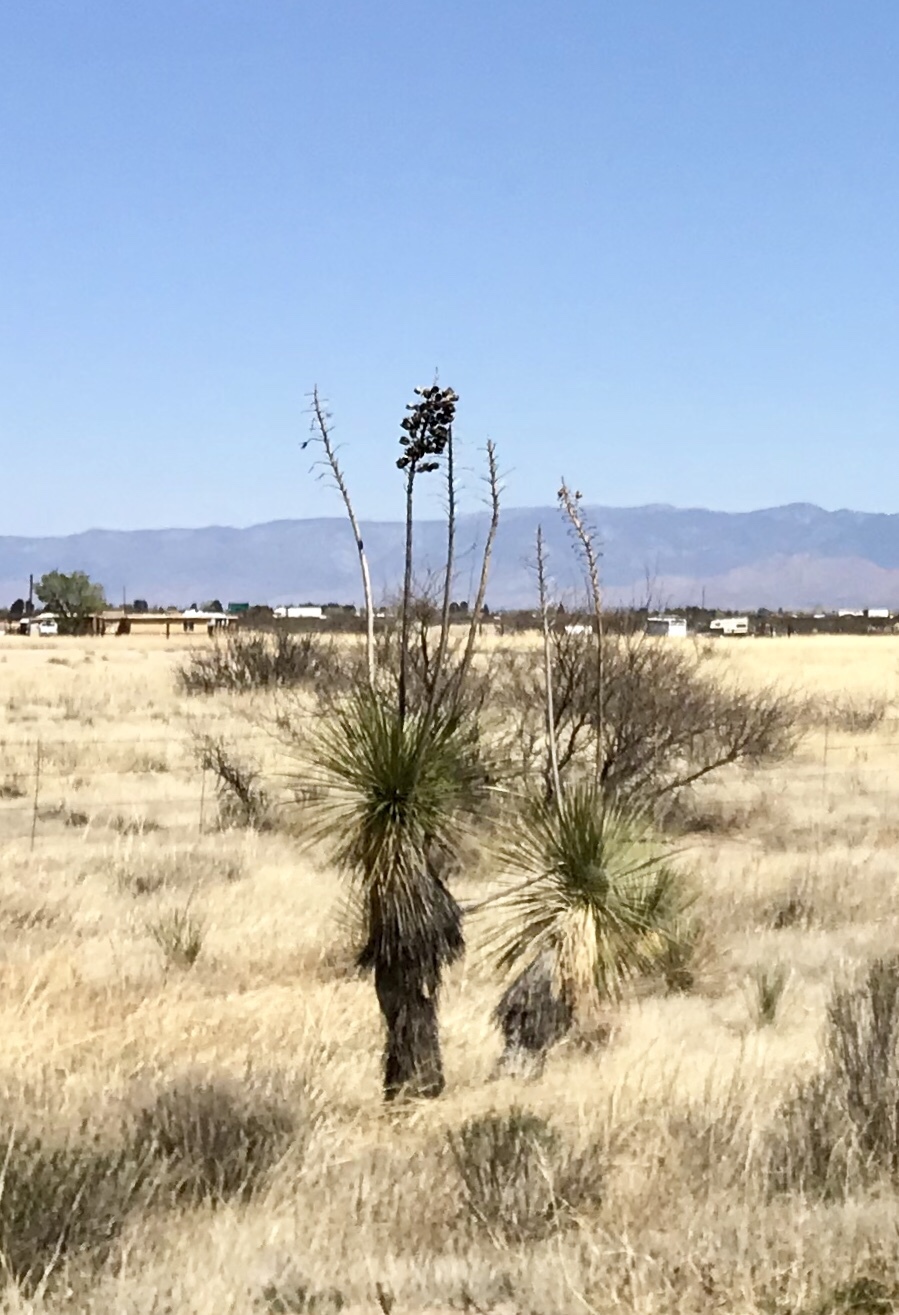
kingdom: Plantae
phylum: Tracheophyta
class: Liliopsida
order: Asparagales
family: Asparagaceae
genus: Yucca
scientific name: Yucca elata
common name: Palmella
